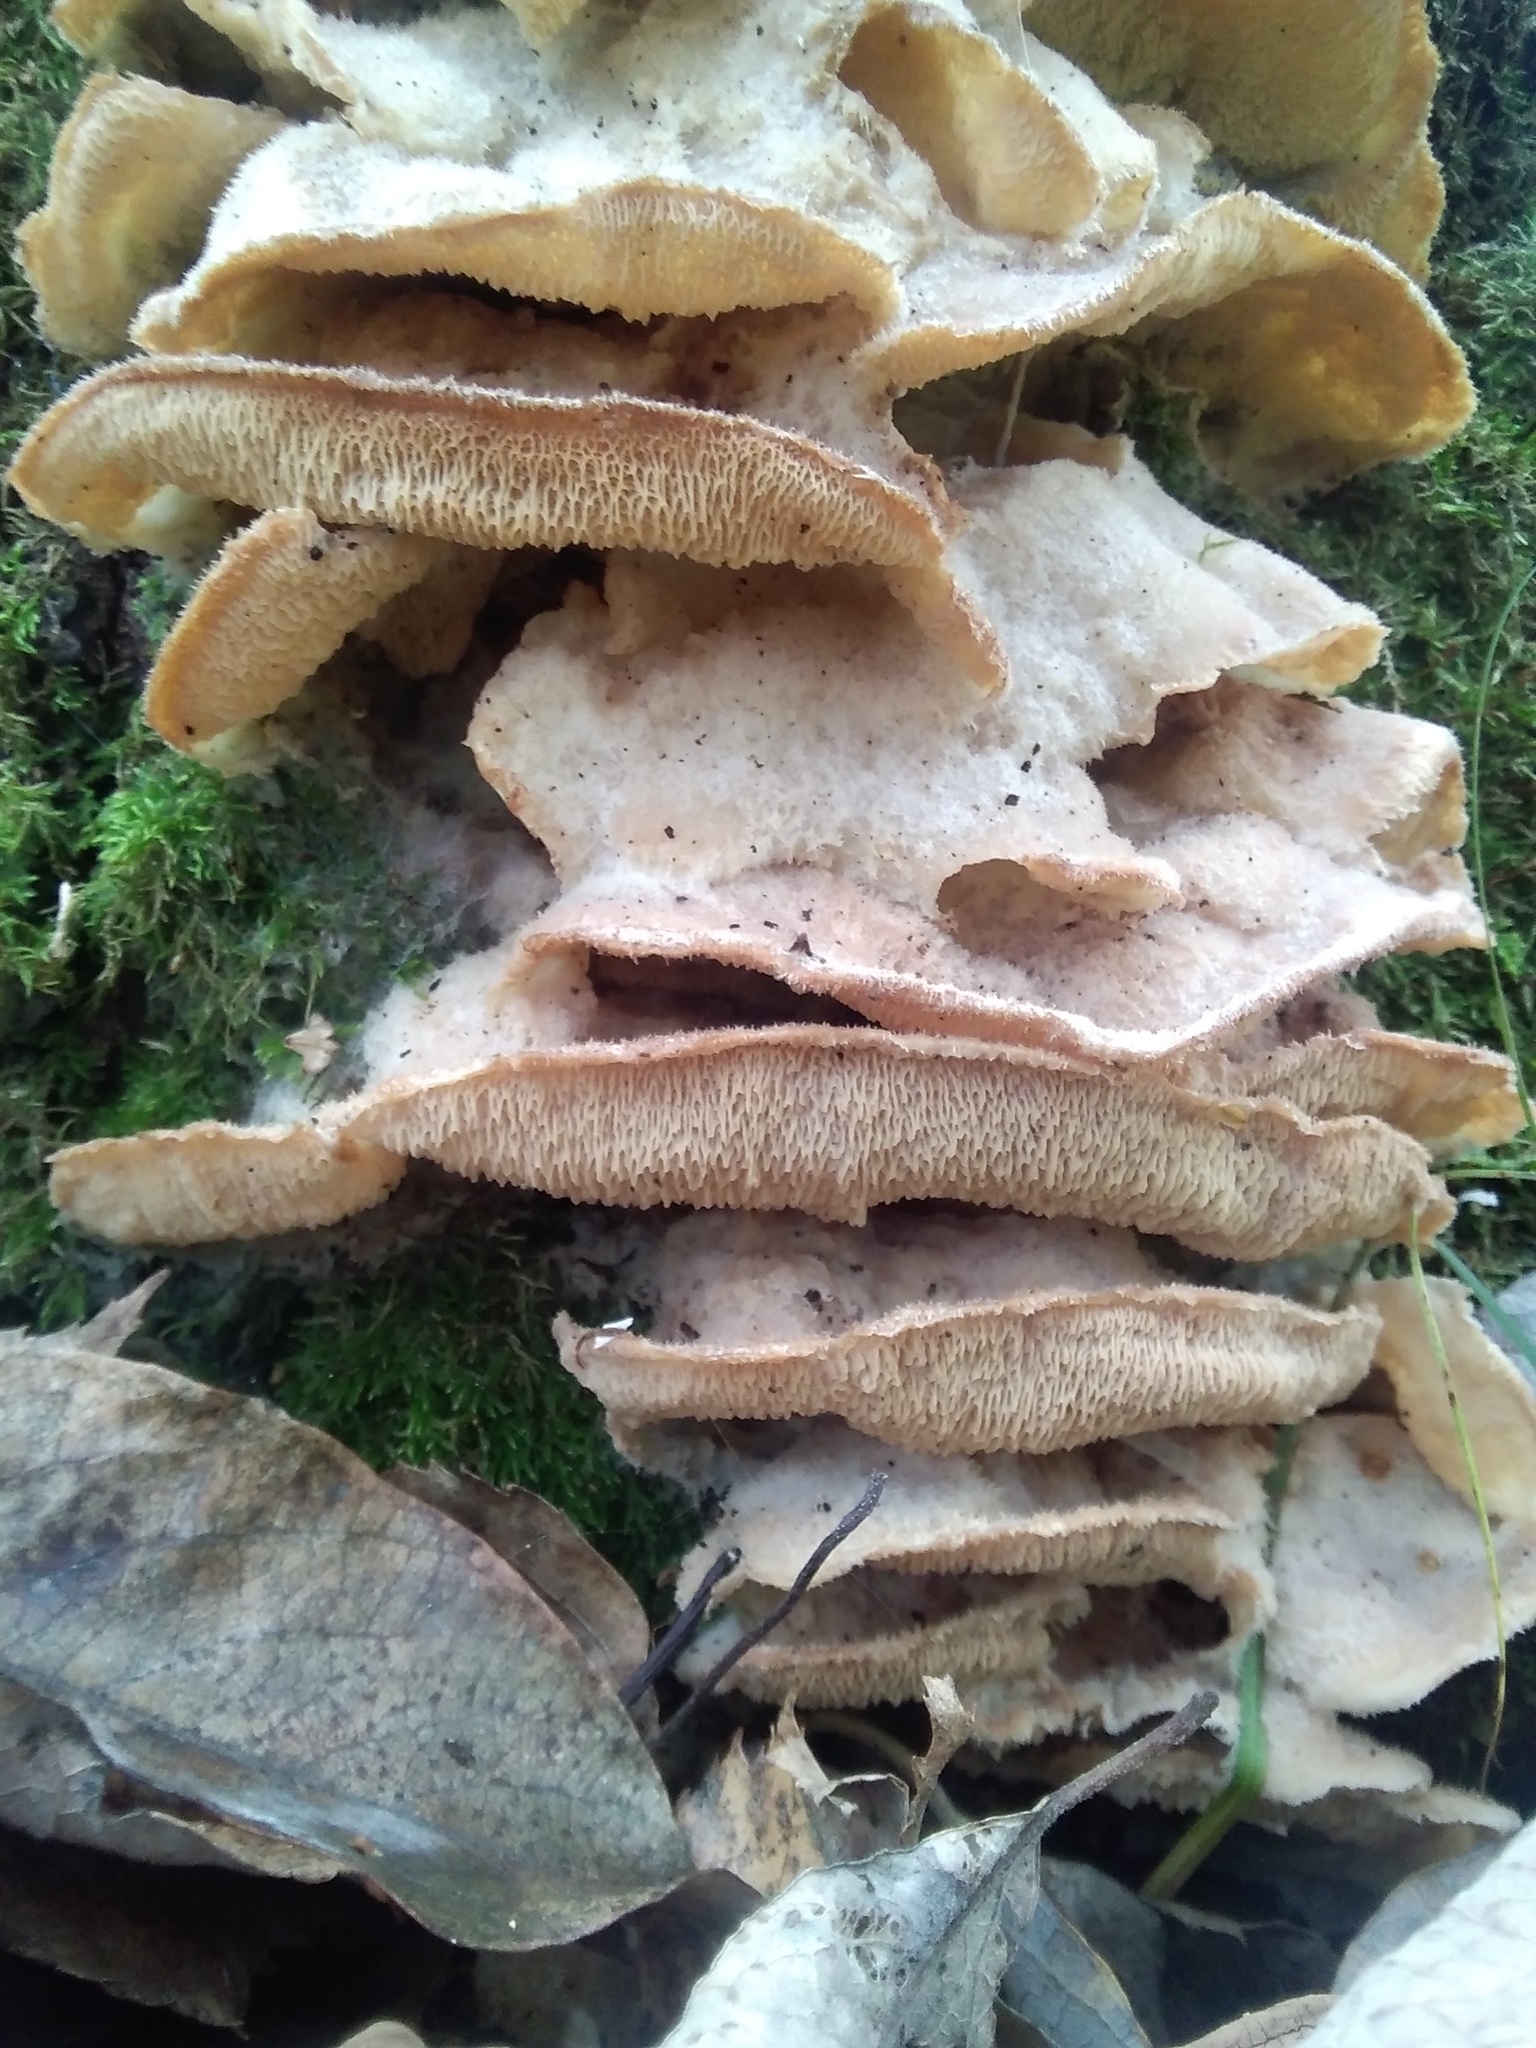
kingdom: Fungi
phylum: Basidiomycota
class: Agaricomycetes
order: Polyporales
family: Meruliaceae
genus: Phlebia
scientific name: Phlebia tremellosa
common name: Jelly rot
